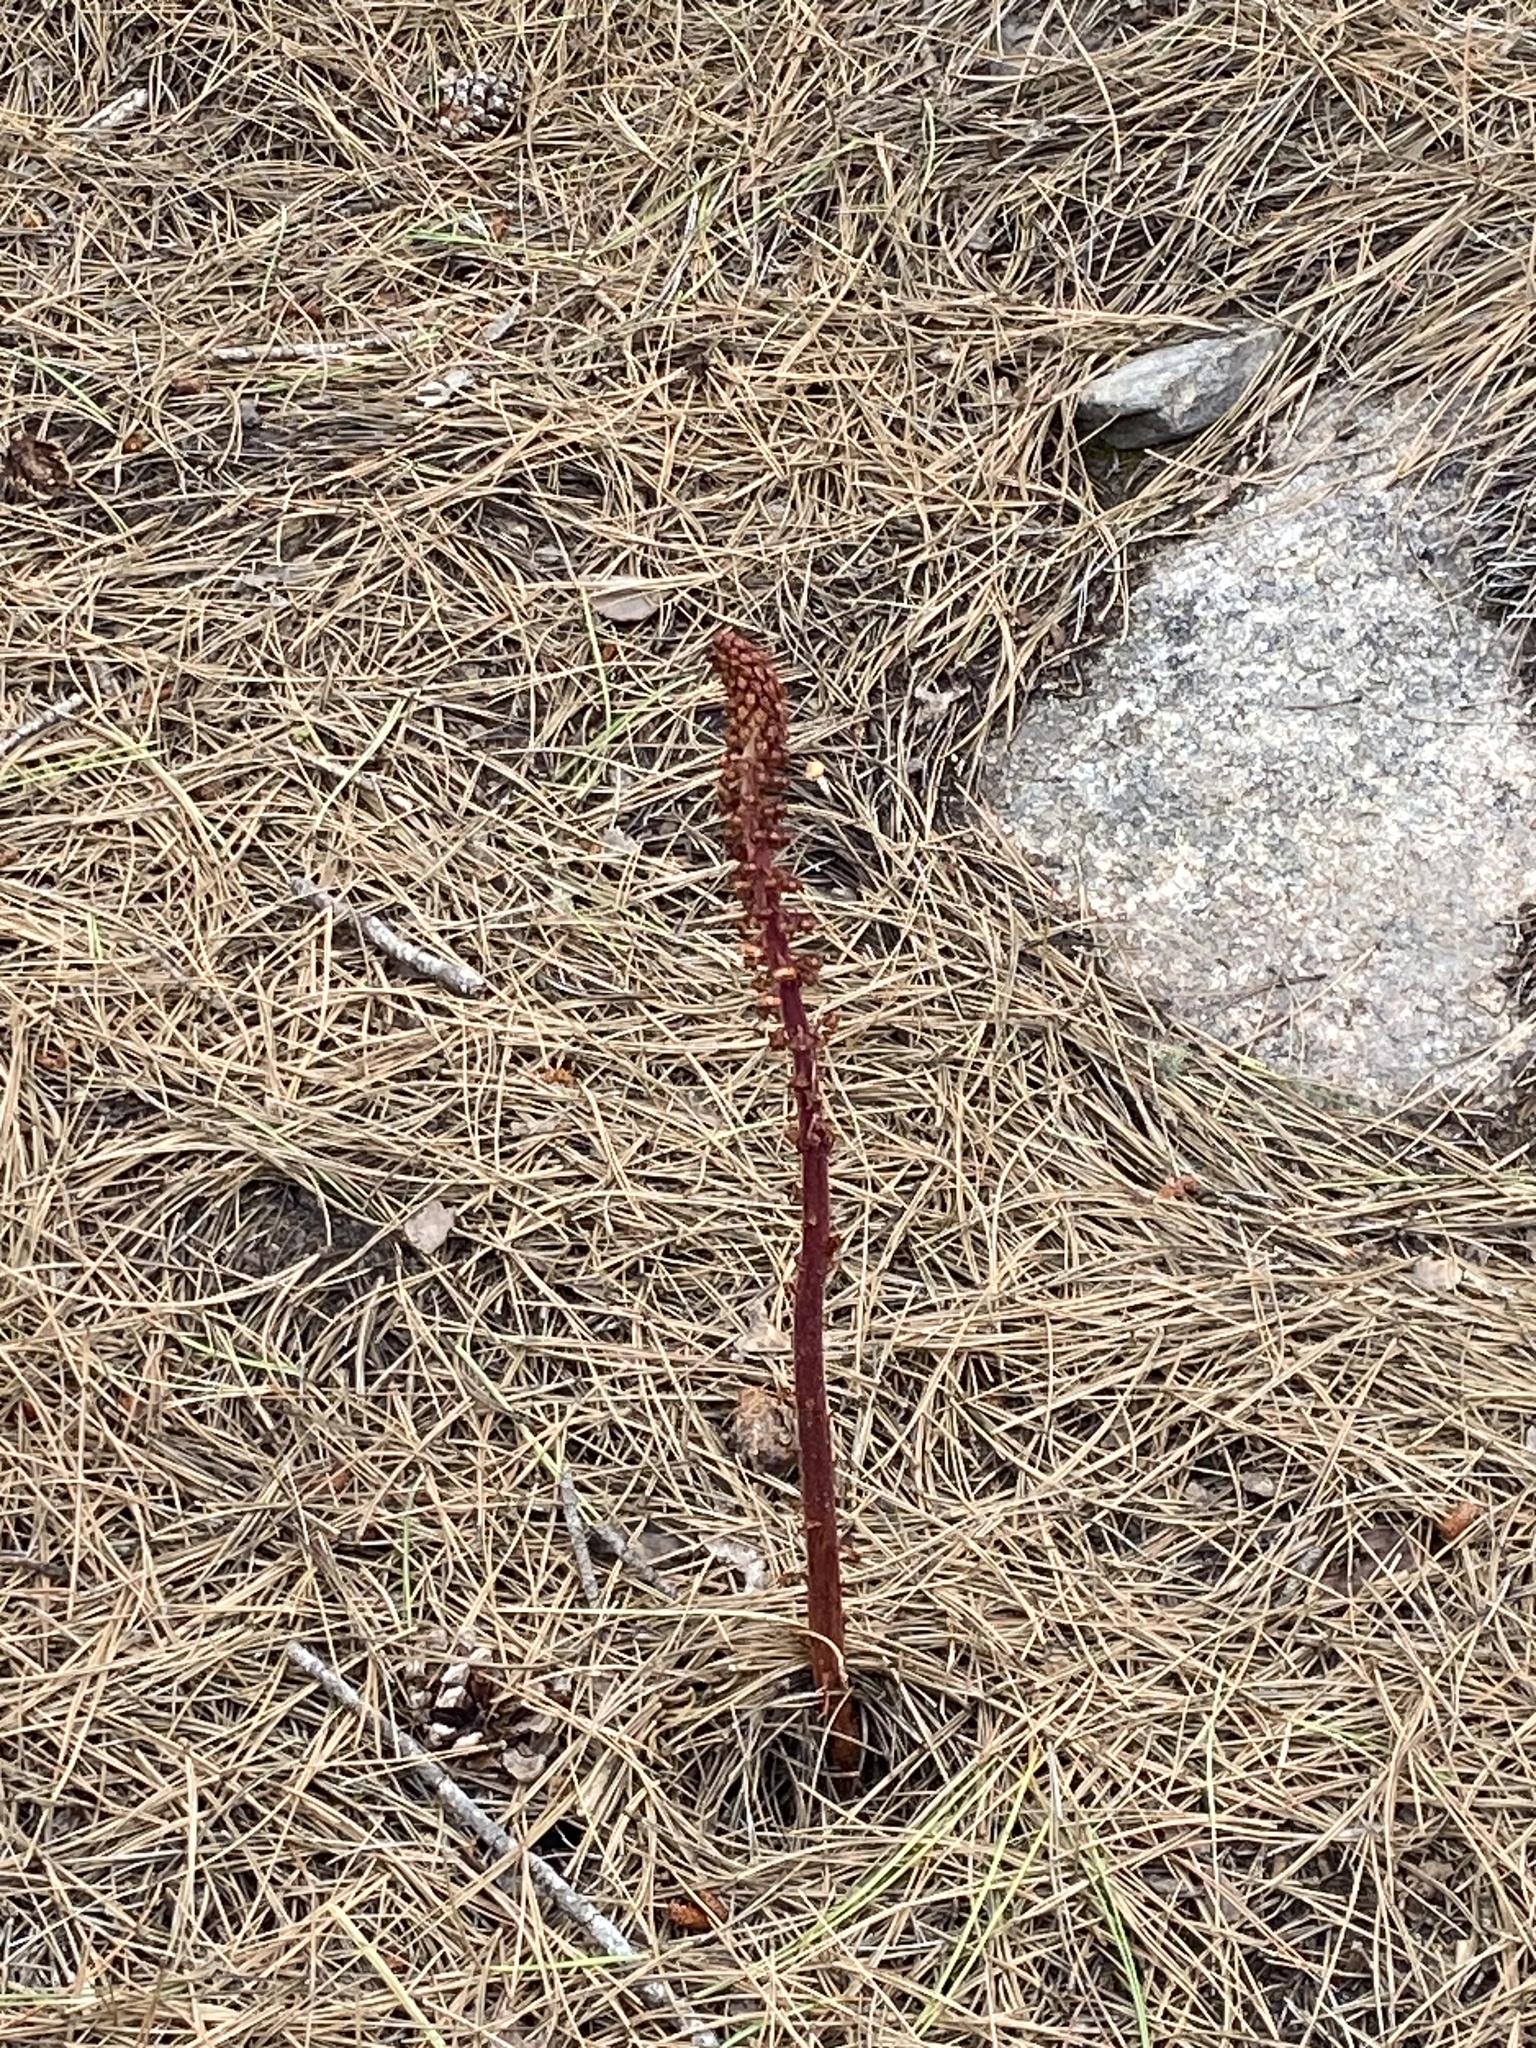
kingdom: Plantae
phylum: Tracheophyta
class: Magnoliopsida
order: Ericales
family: Ericaceae
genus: Pterospora
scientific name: Pterospora andromedea
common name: Giant bird's-nest
